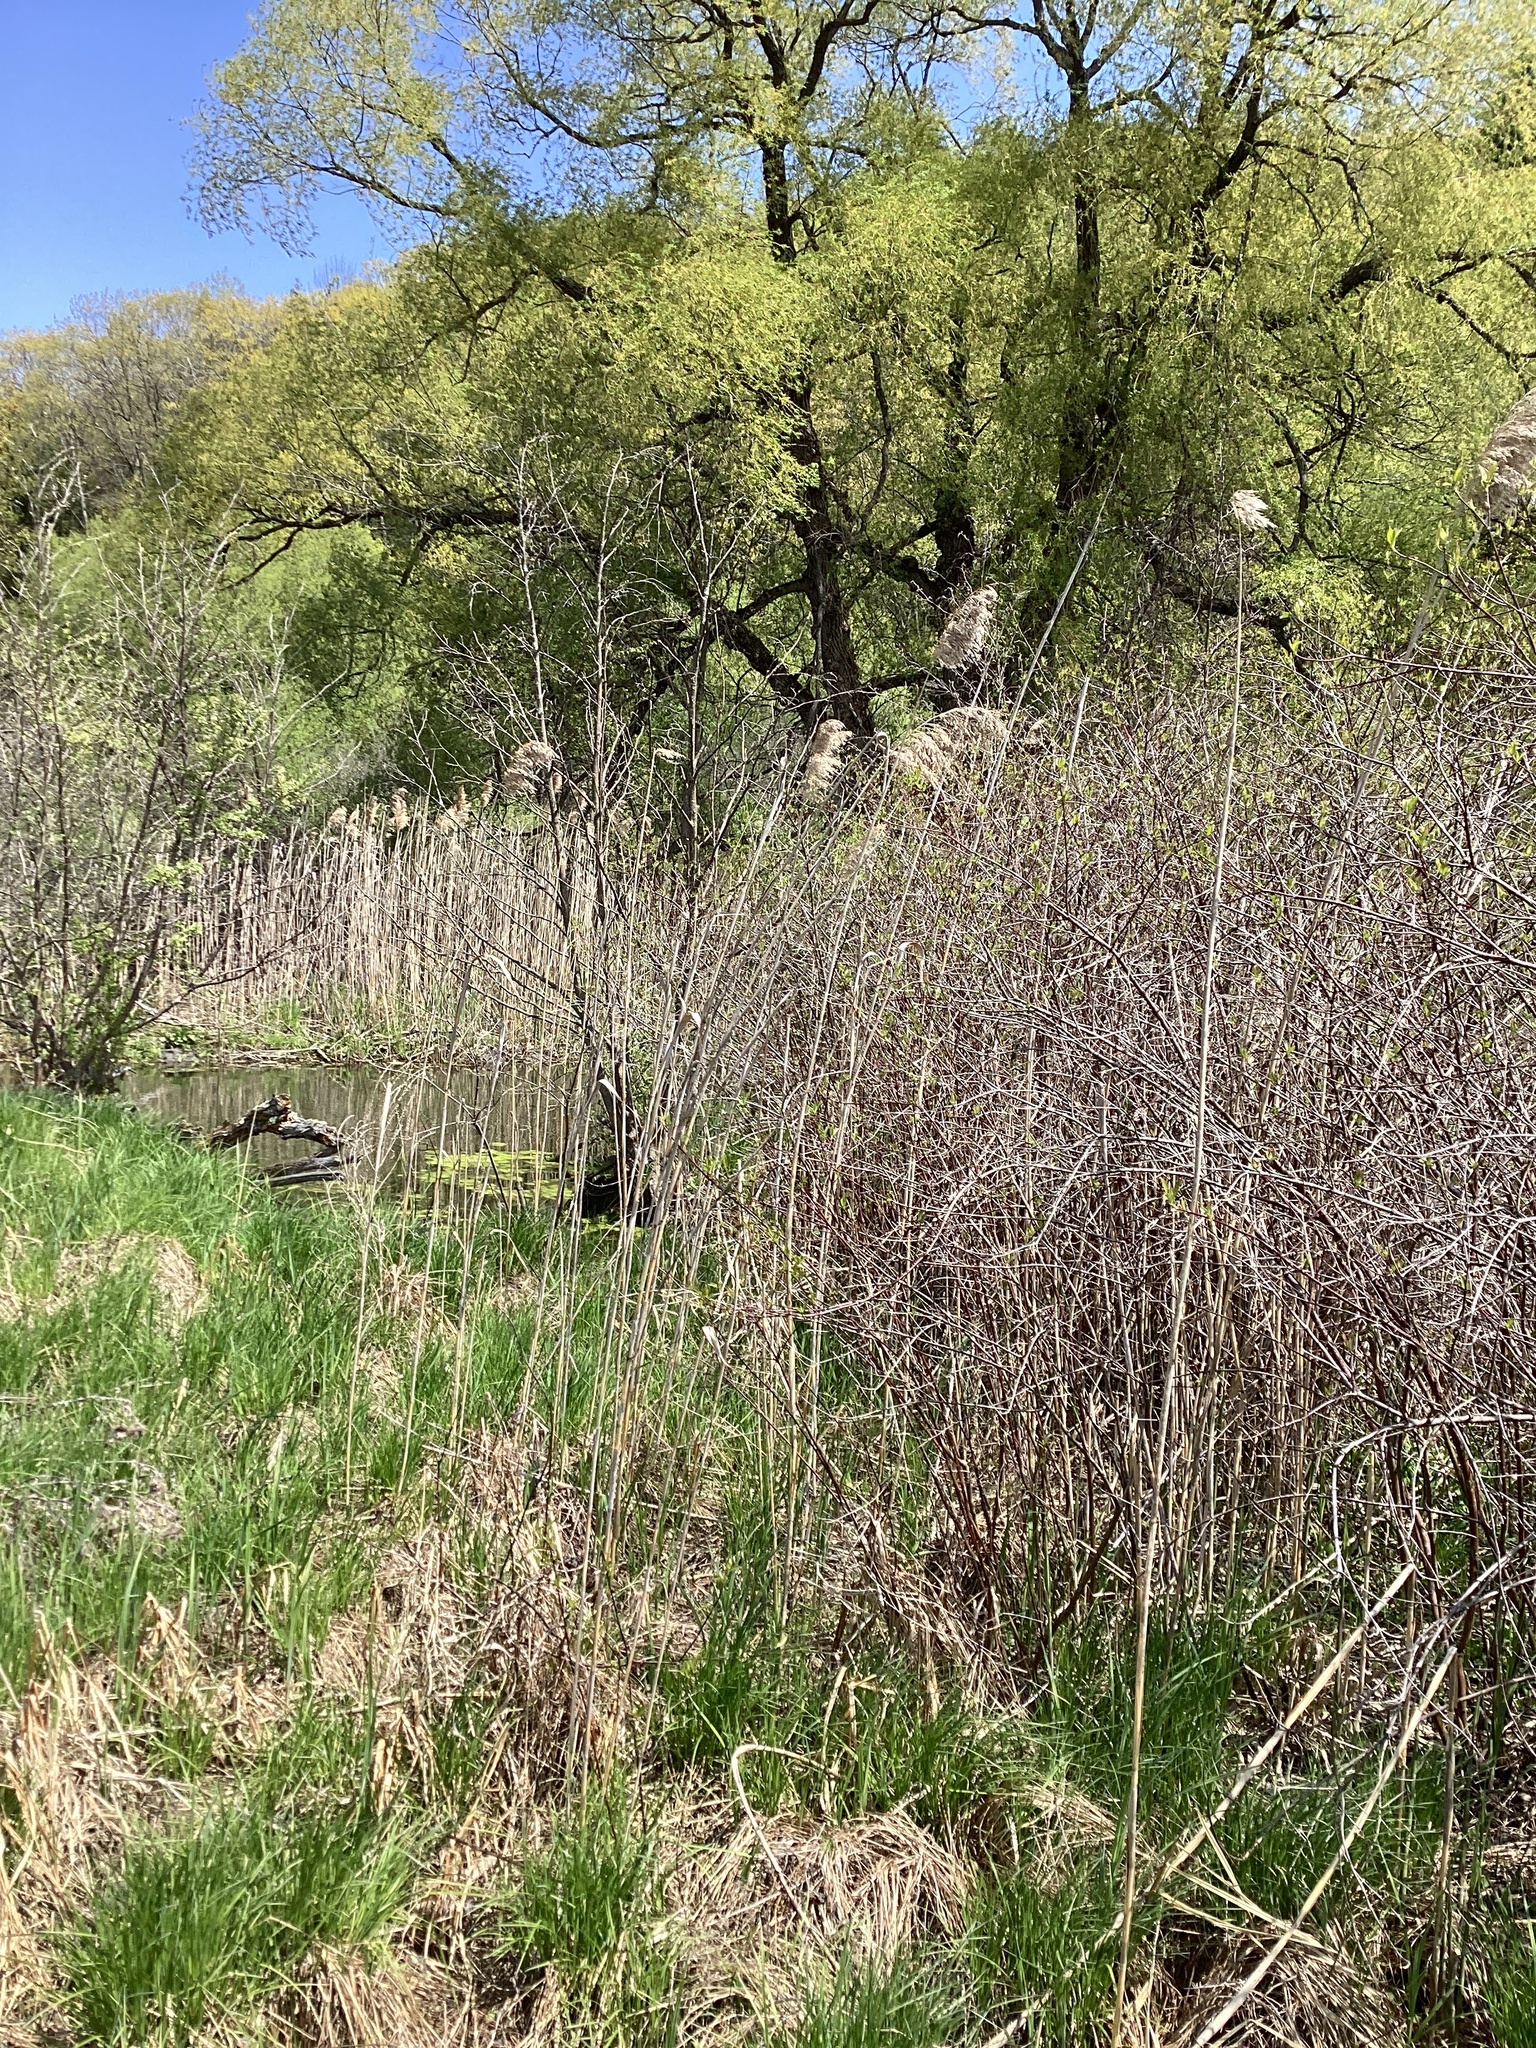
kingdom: Plantae
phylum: Tracheophyta
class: Liliopsida
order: Poales
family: Poaceae
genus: Phragmites
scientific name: Phragmites australis
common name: Common reed
